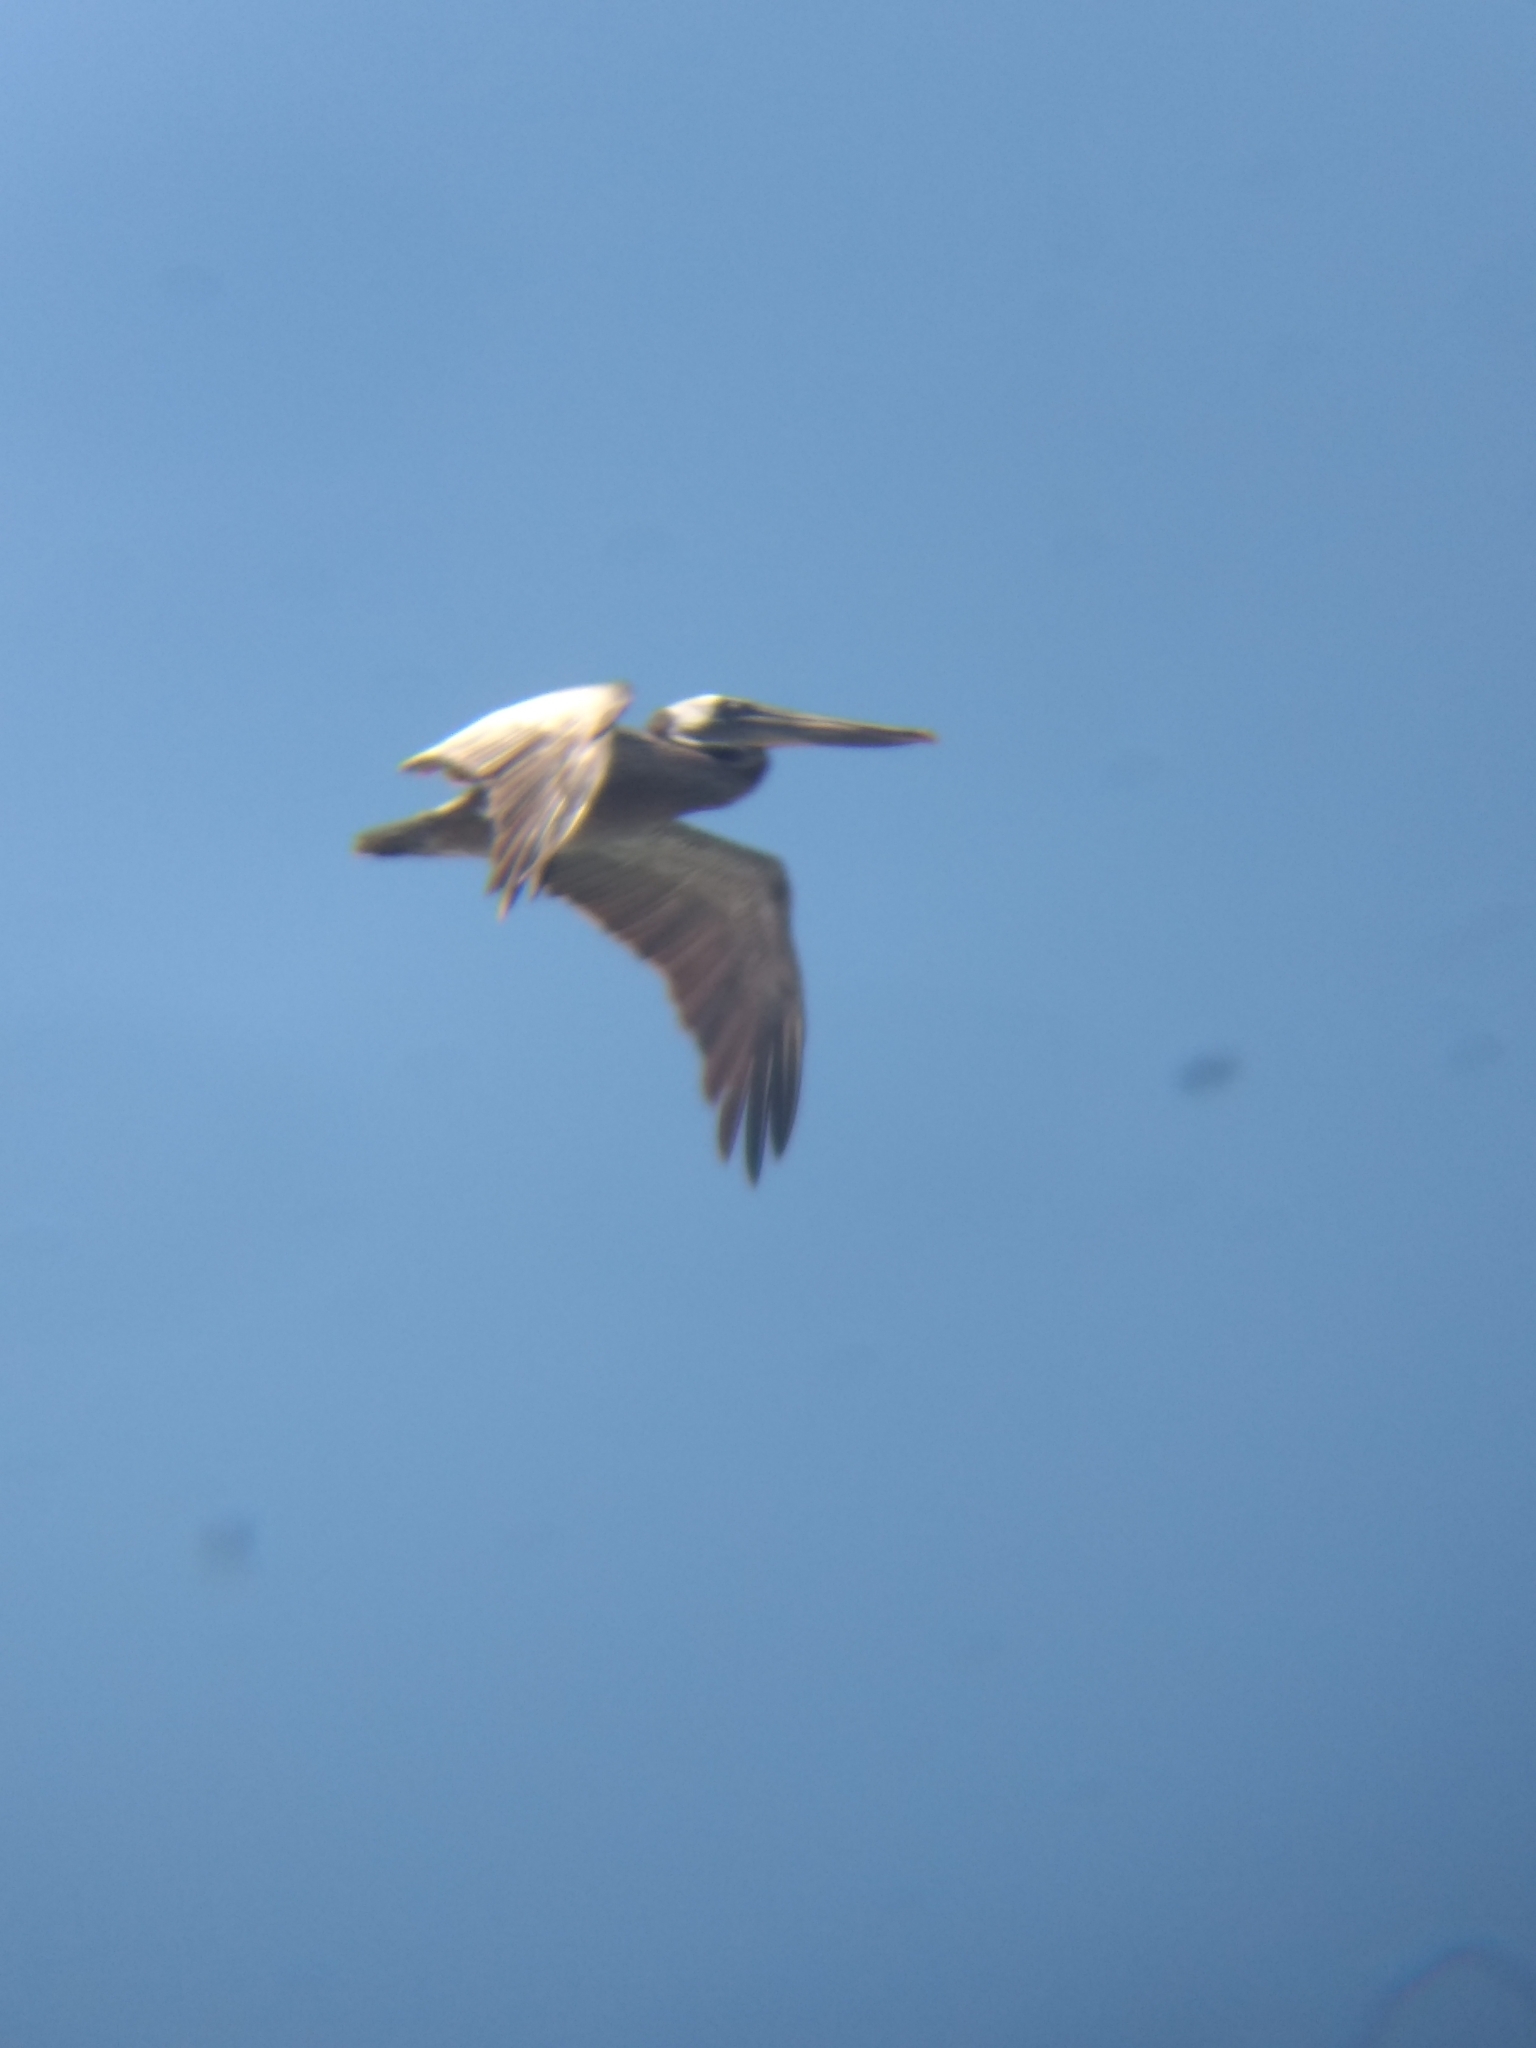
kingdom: Animalia
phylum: Chordata
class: Aves
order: Pelecaniformes
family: Pelecanidae
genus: Pelecanus
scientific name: Pelecanus occidentalis
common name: Brown pelican
